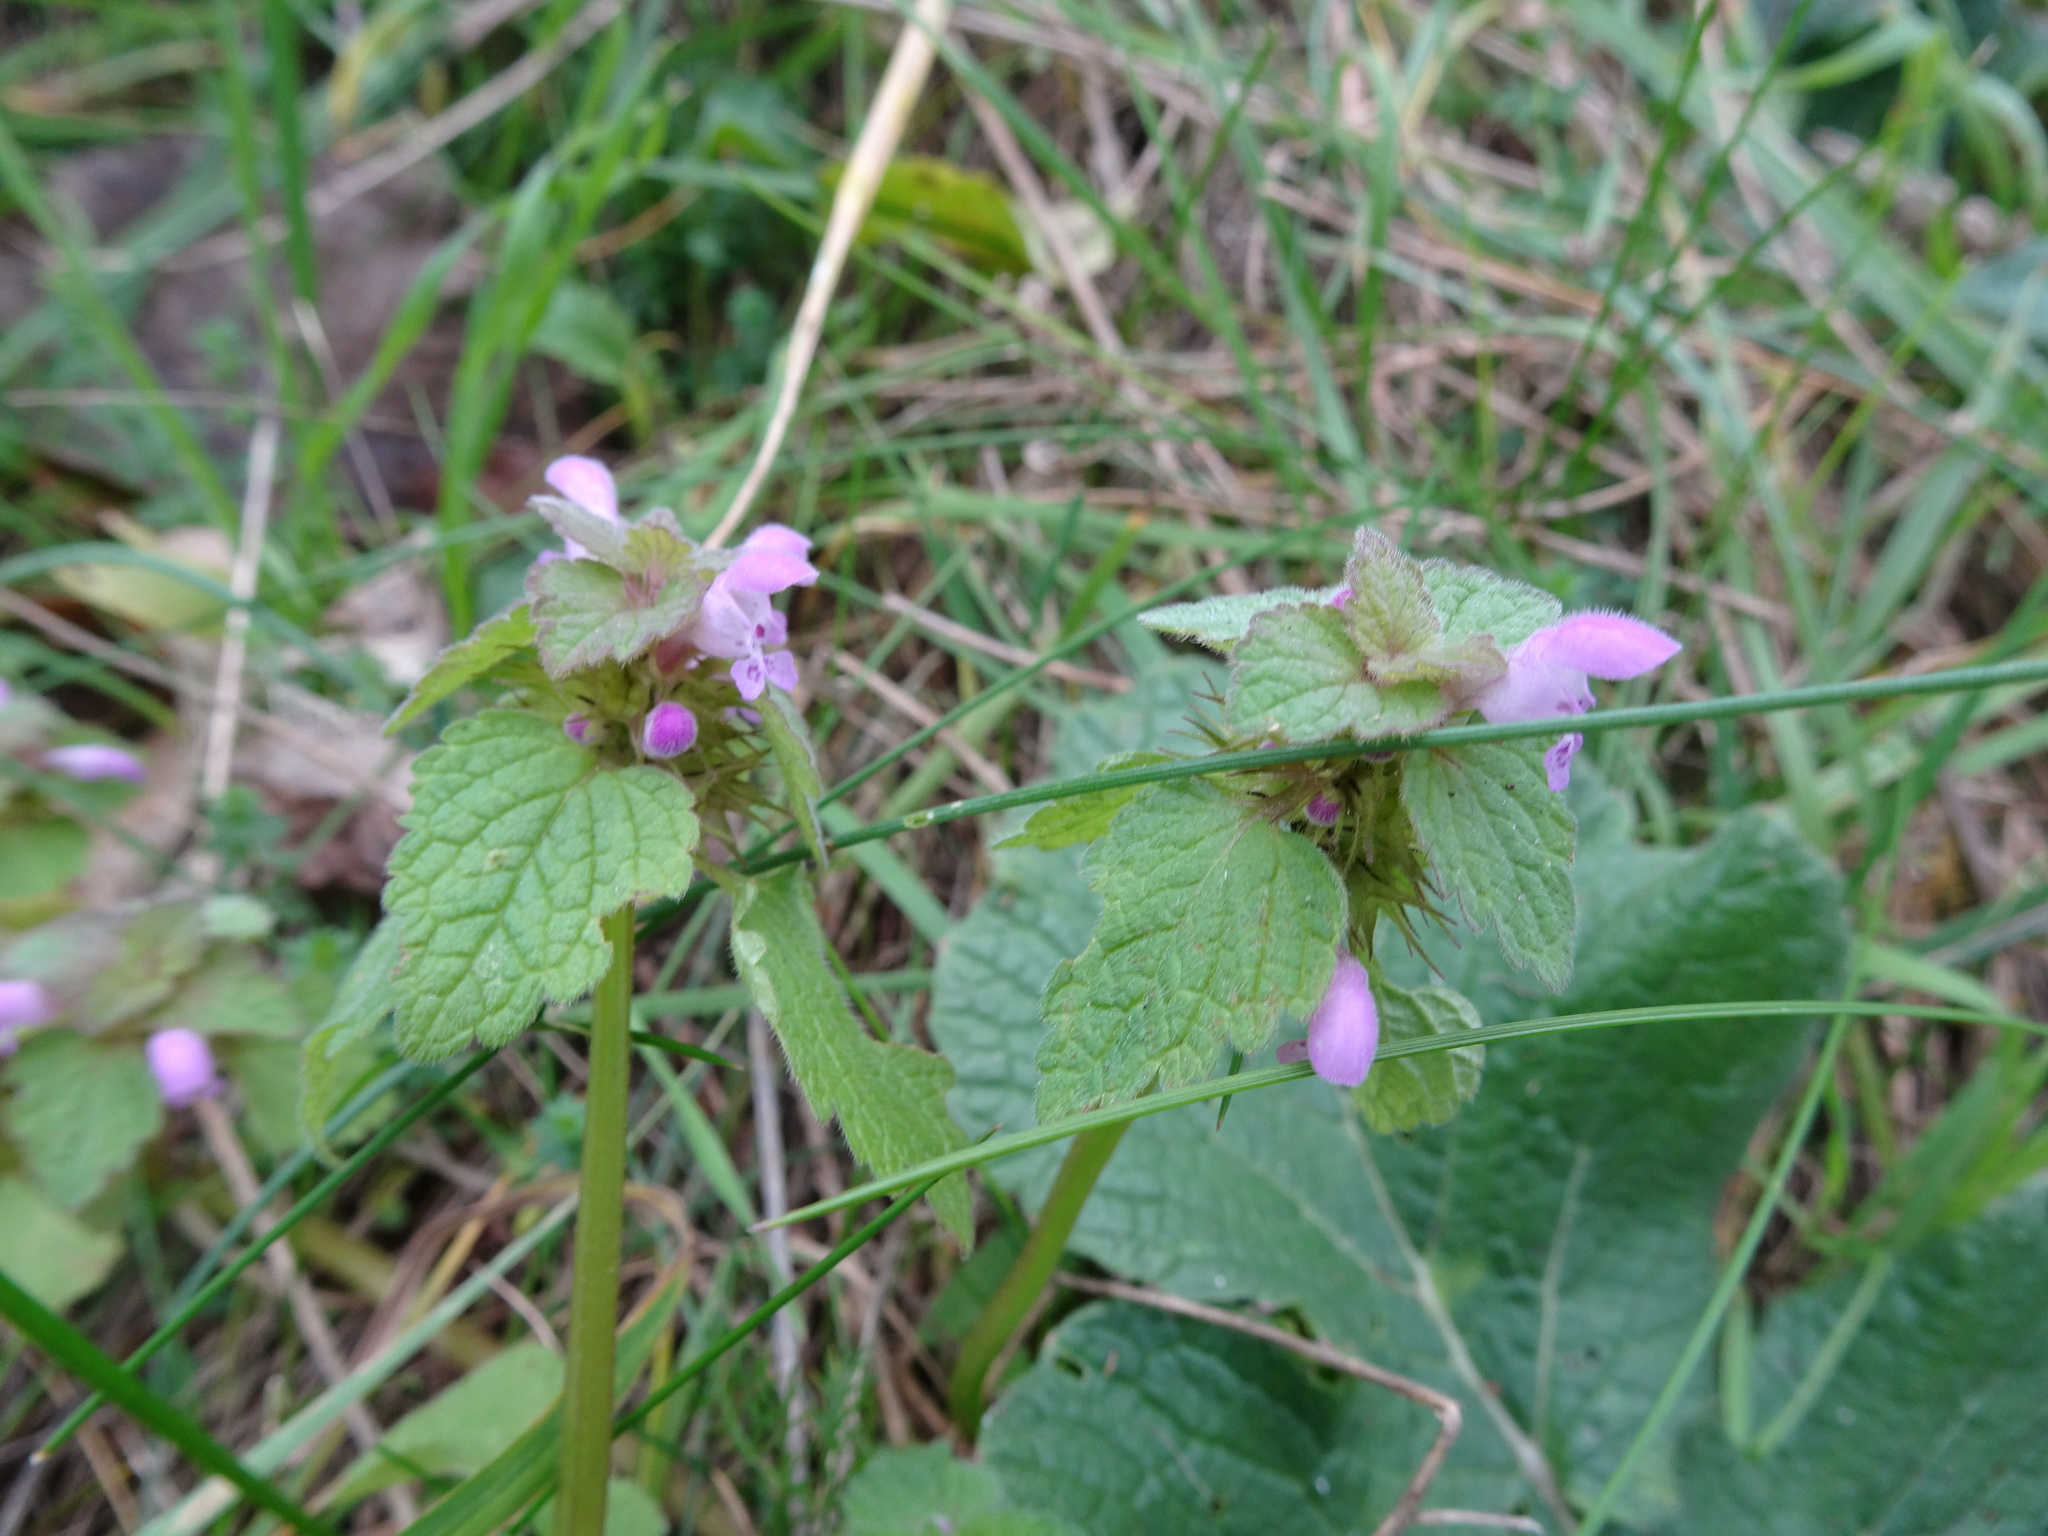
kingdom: Plantae
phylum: Tracheophyta
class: Magnoliopsida
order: Lamiales
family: Lamiaceae
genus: Lamium
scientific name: Lamium purpureum
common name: Red dead-nettle
